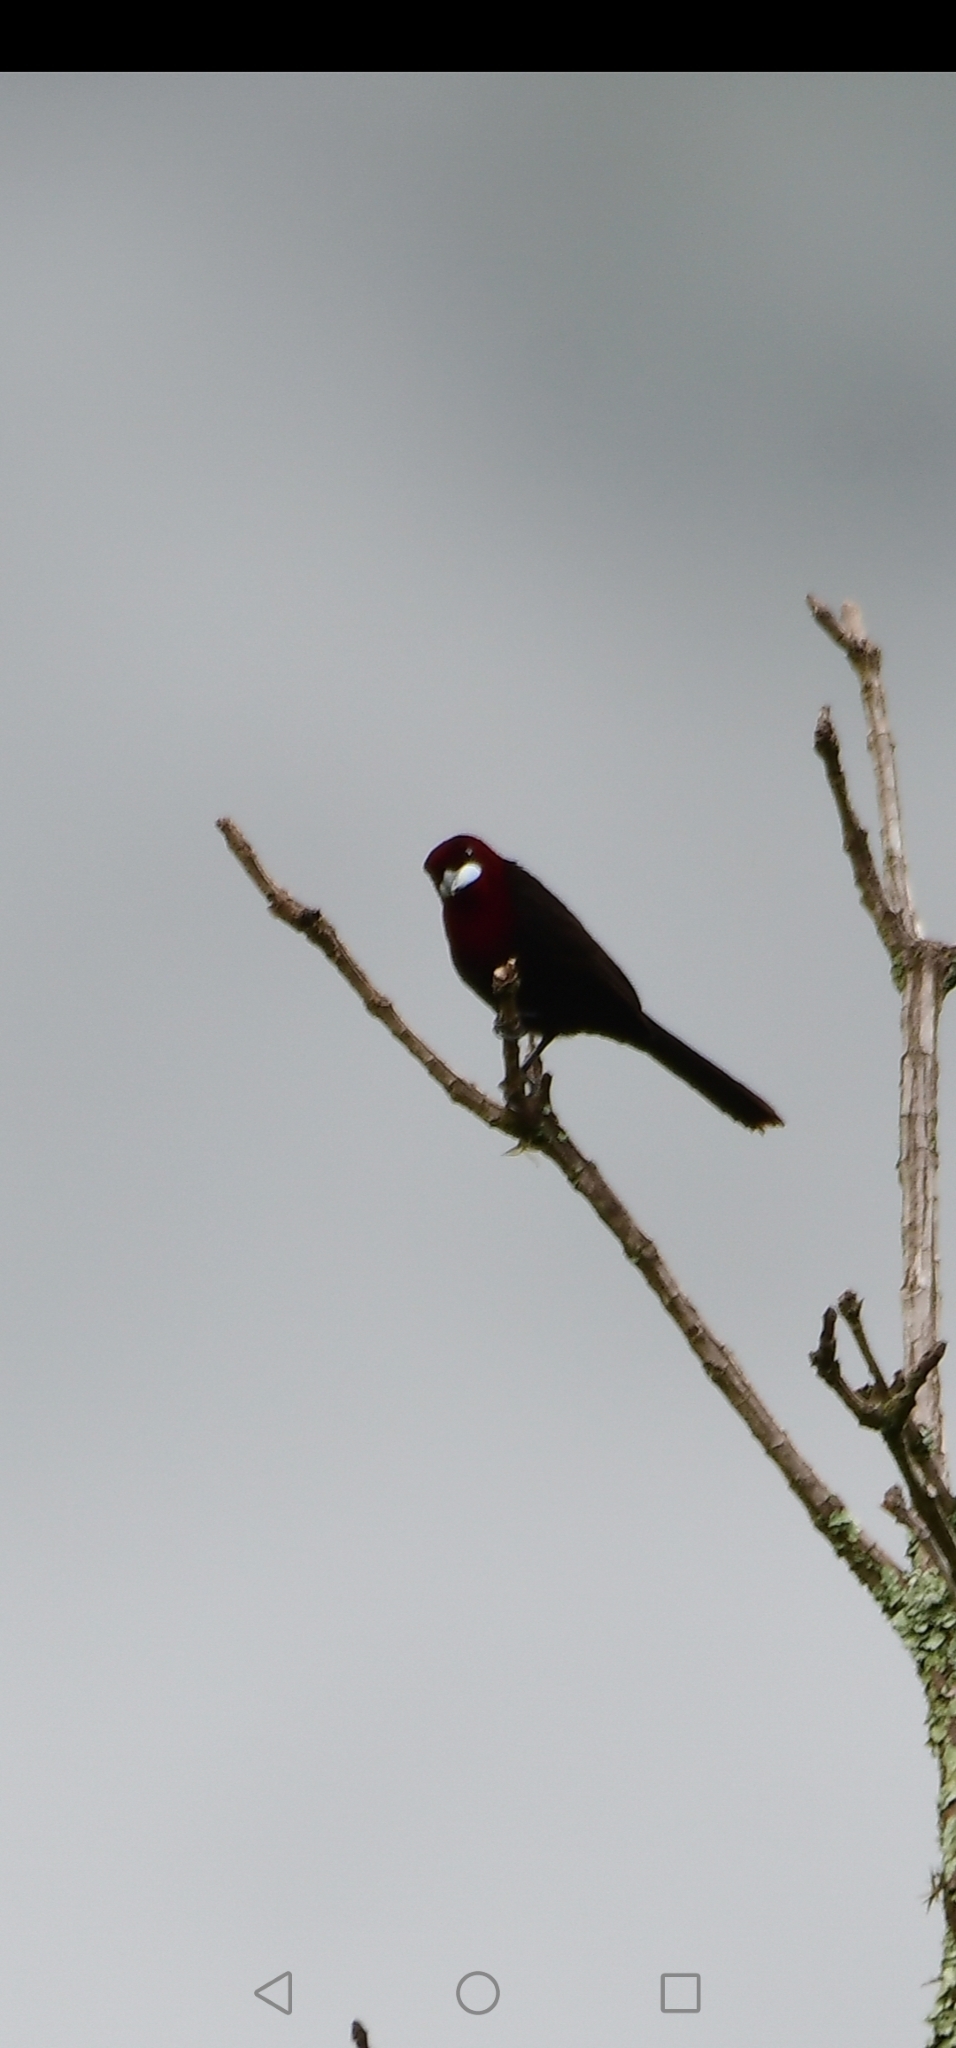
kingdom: Animalia
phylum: Chordata
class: Aves
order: Passeriformes
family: Thraupidae
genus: Ramphocelus
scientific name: Ramphocelus carbo
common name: Silver-beaked tanager
